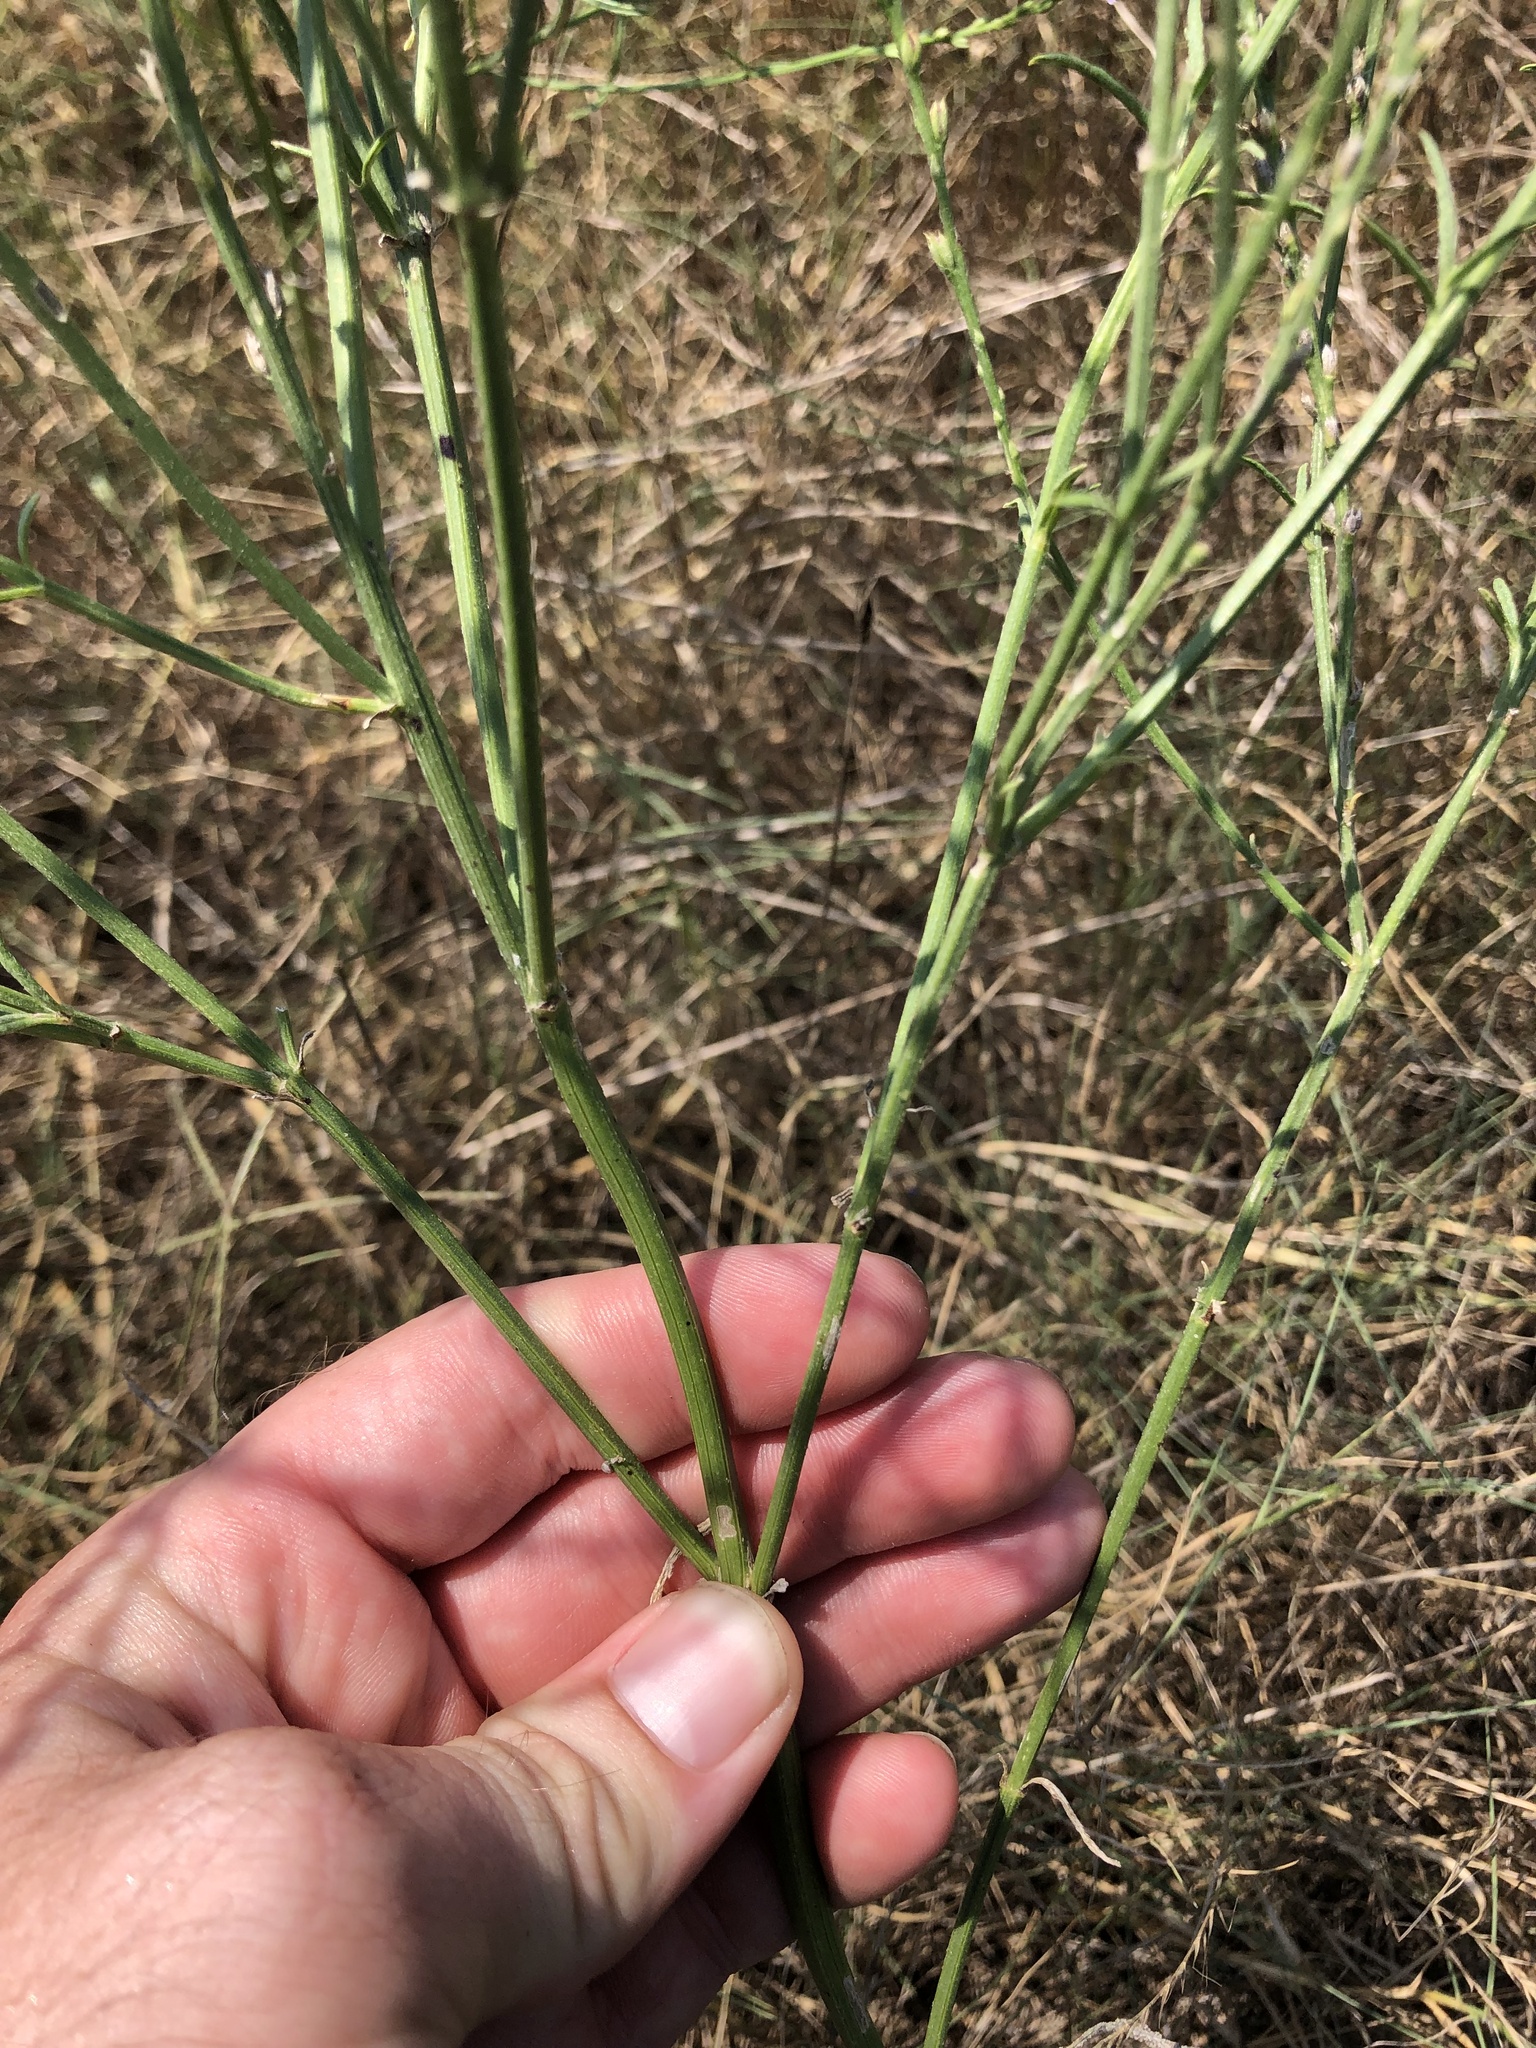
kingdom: Plantae
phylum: Tracheophyta
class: Magnoliopsida
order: Lamiales
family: Verbenaceae
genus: Verbena
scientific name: Verbena xutha
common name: Gulf vervain
